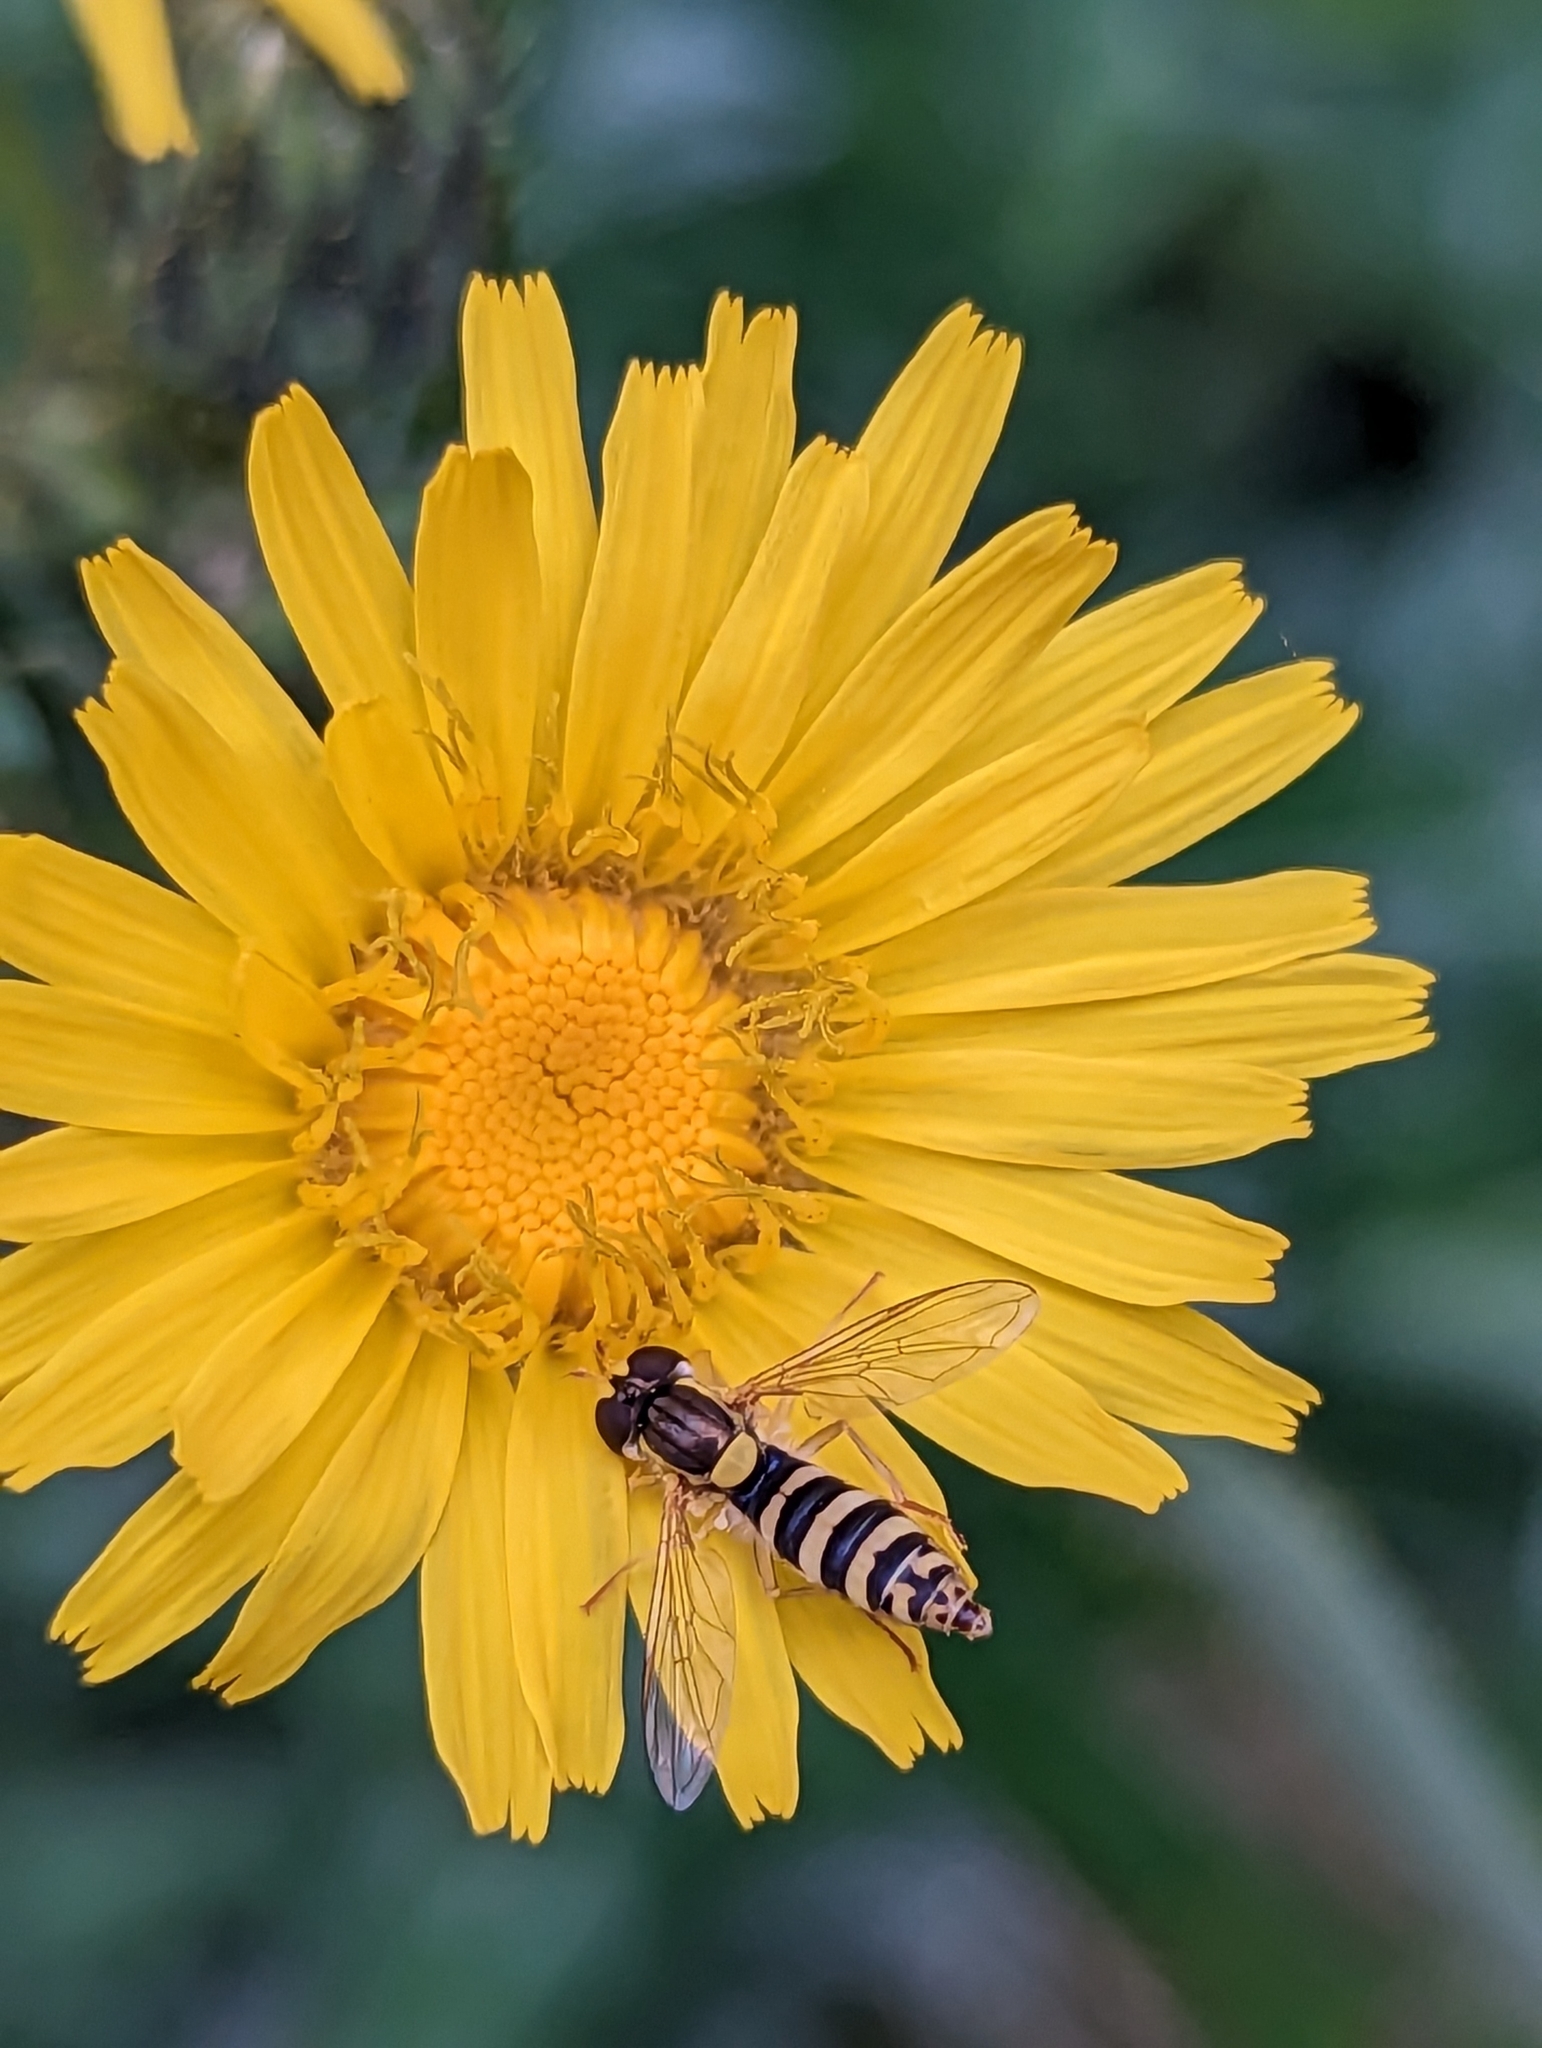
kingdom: Animalia
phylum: Arthropoda
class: Insecta
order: Diptera
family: Syrphidae
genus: Sphaerophoria
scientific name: Sphaerophoria
